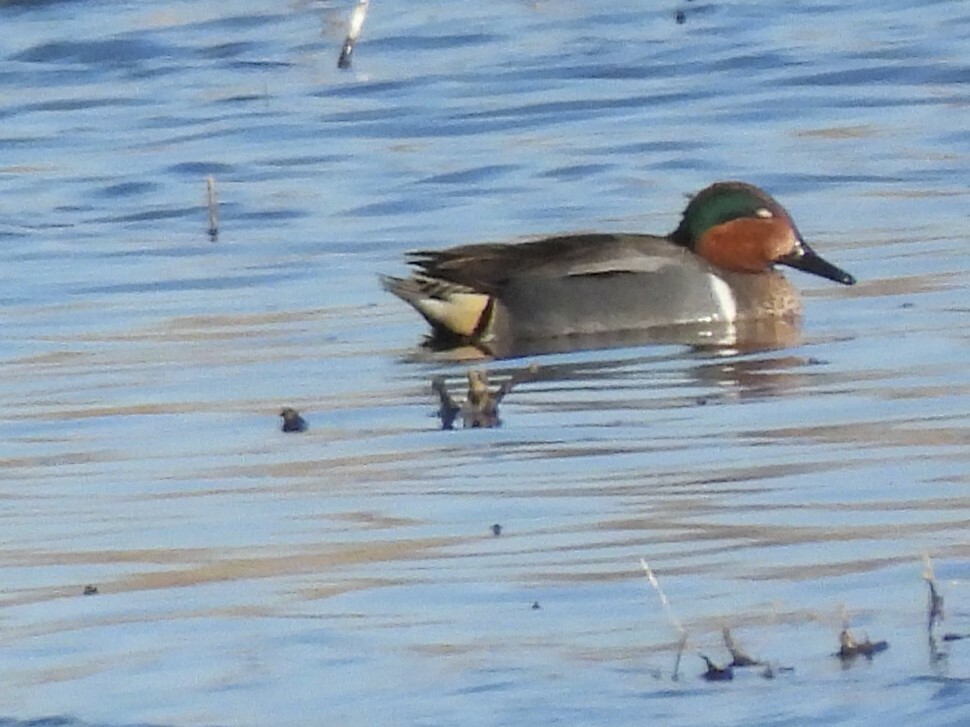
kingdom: Animalia
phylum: Chordata
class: Aves
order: Anseriformes
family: Anatidae
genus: Anas
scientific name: Anas crecca
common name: Eurasian teal
